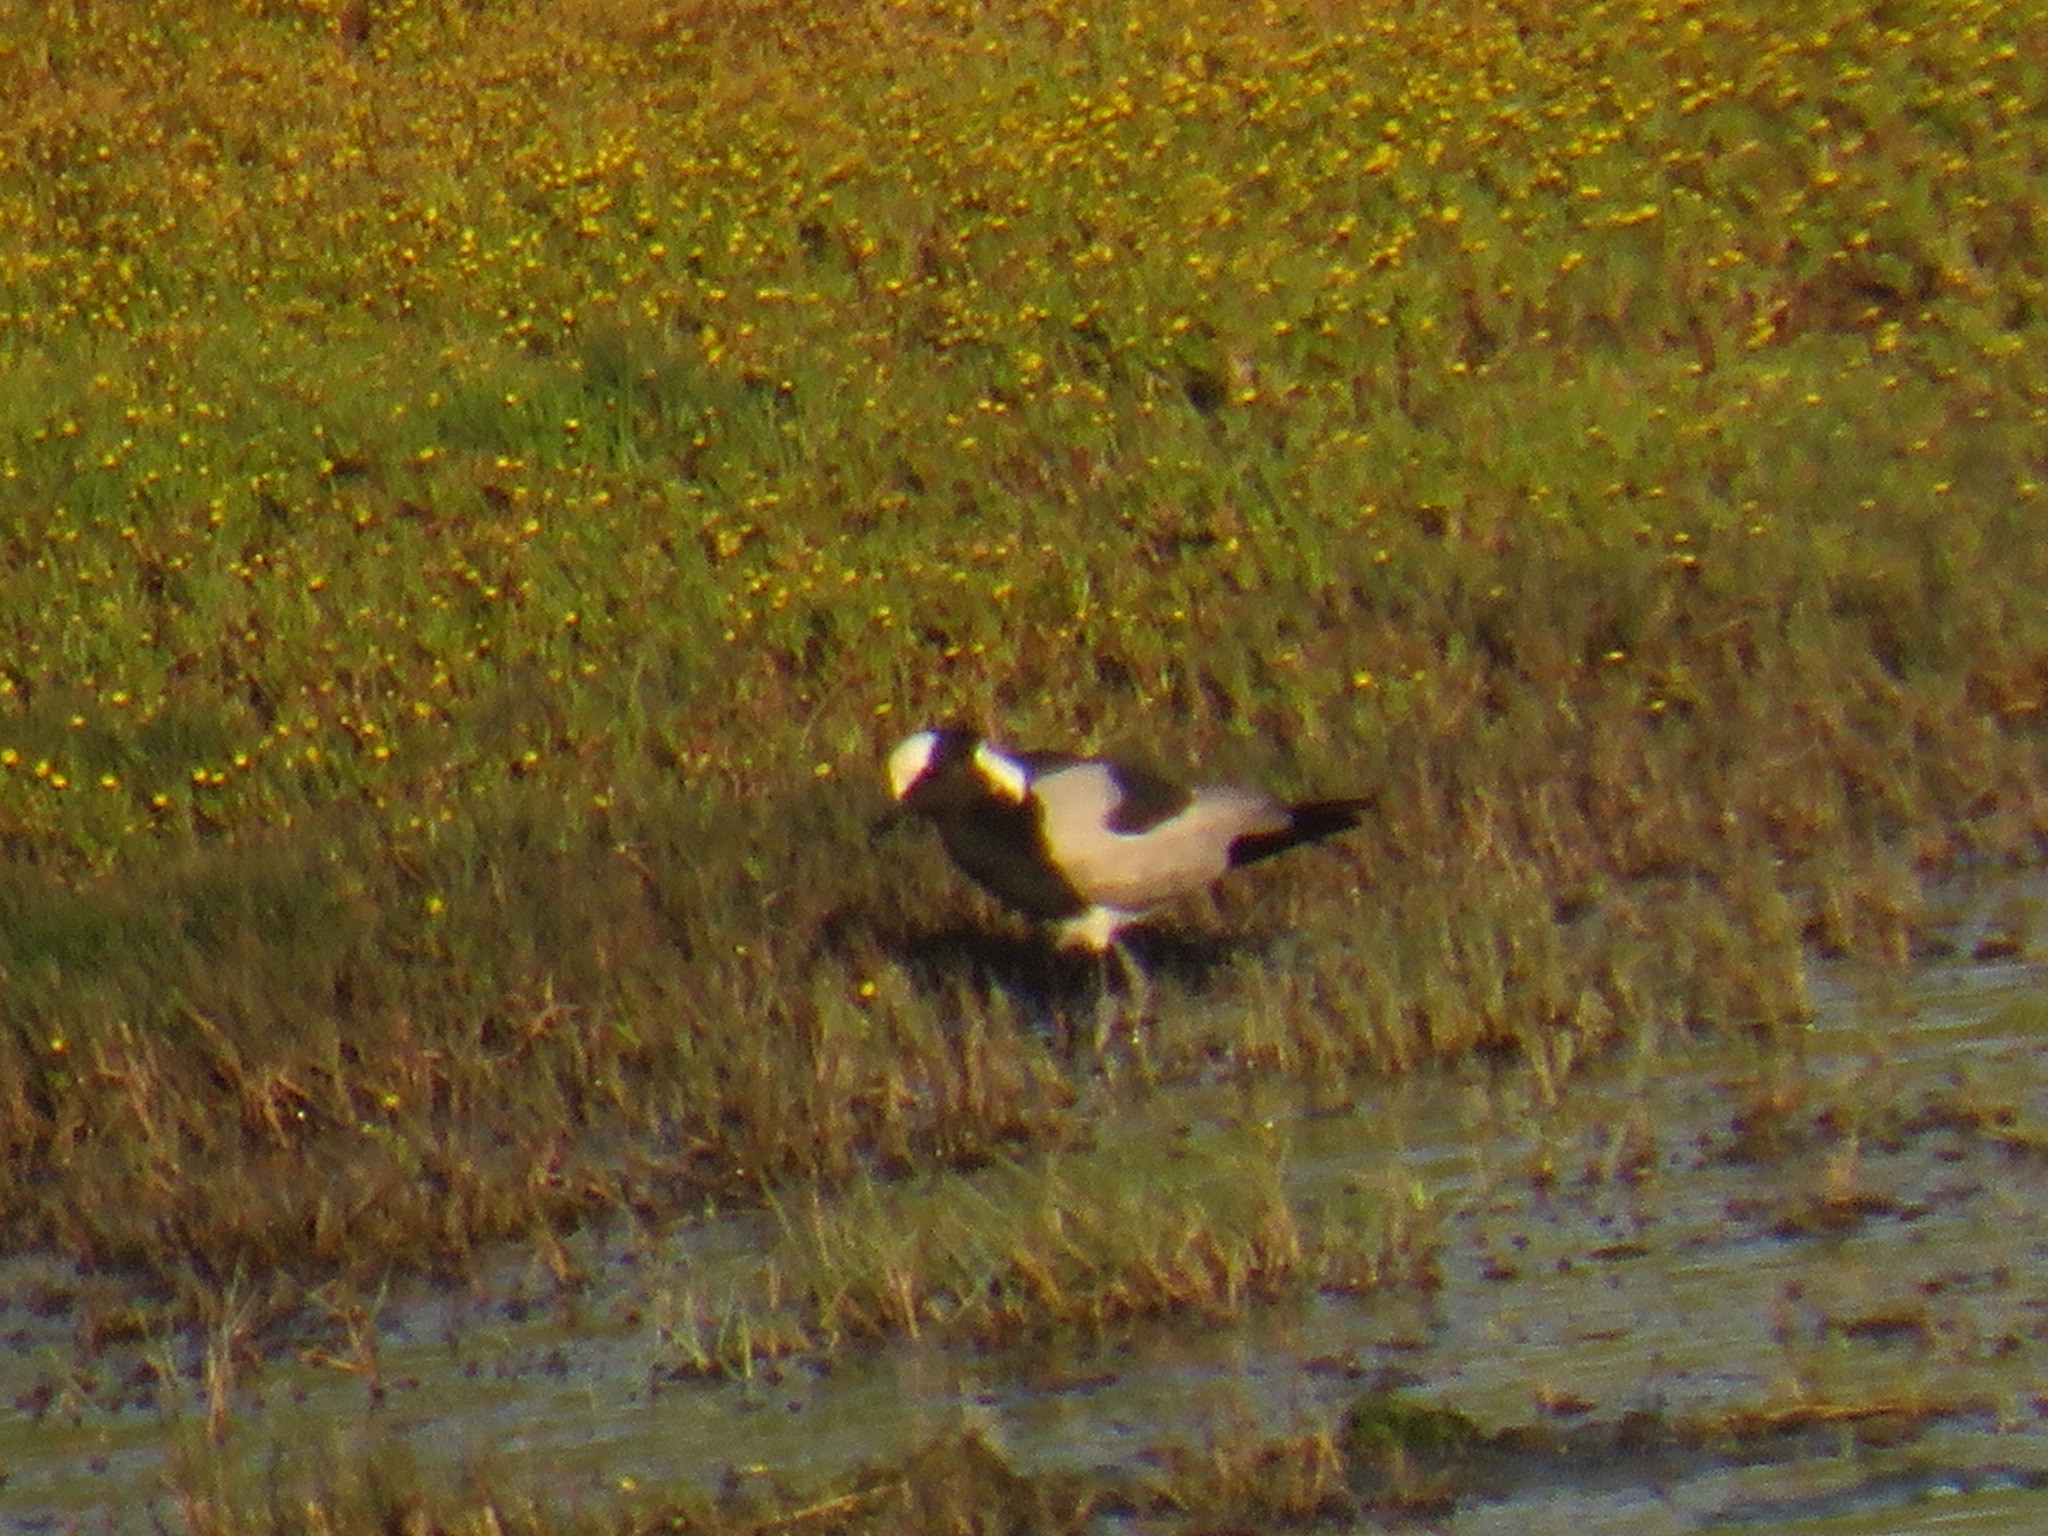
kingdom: Animalia
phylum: Chordata
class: Aves
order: Charadriiformes
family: Charadriidae
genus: Vanellus
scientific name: Vanellus armatus
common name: Blacksmith lapwing
